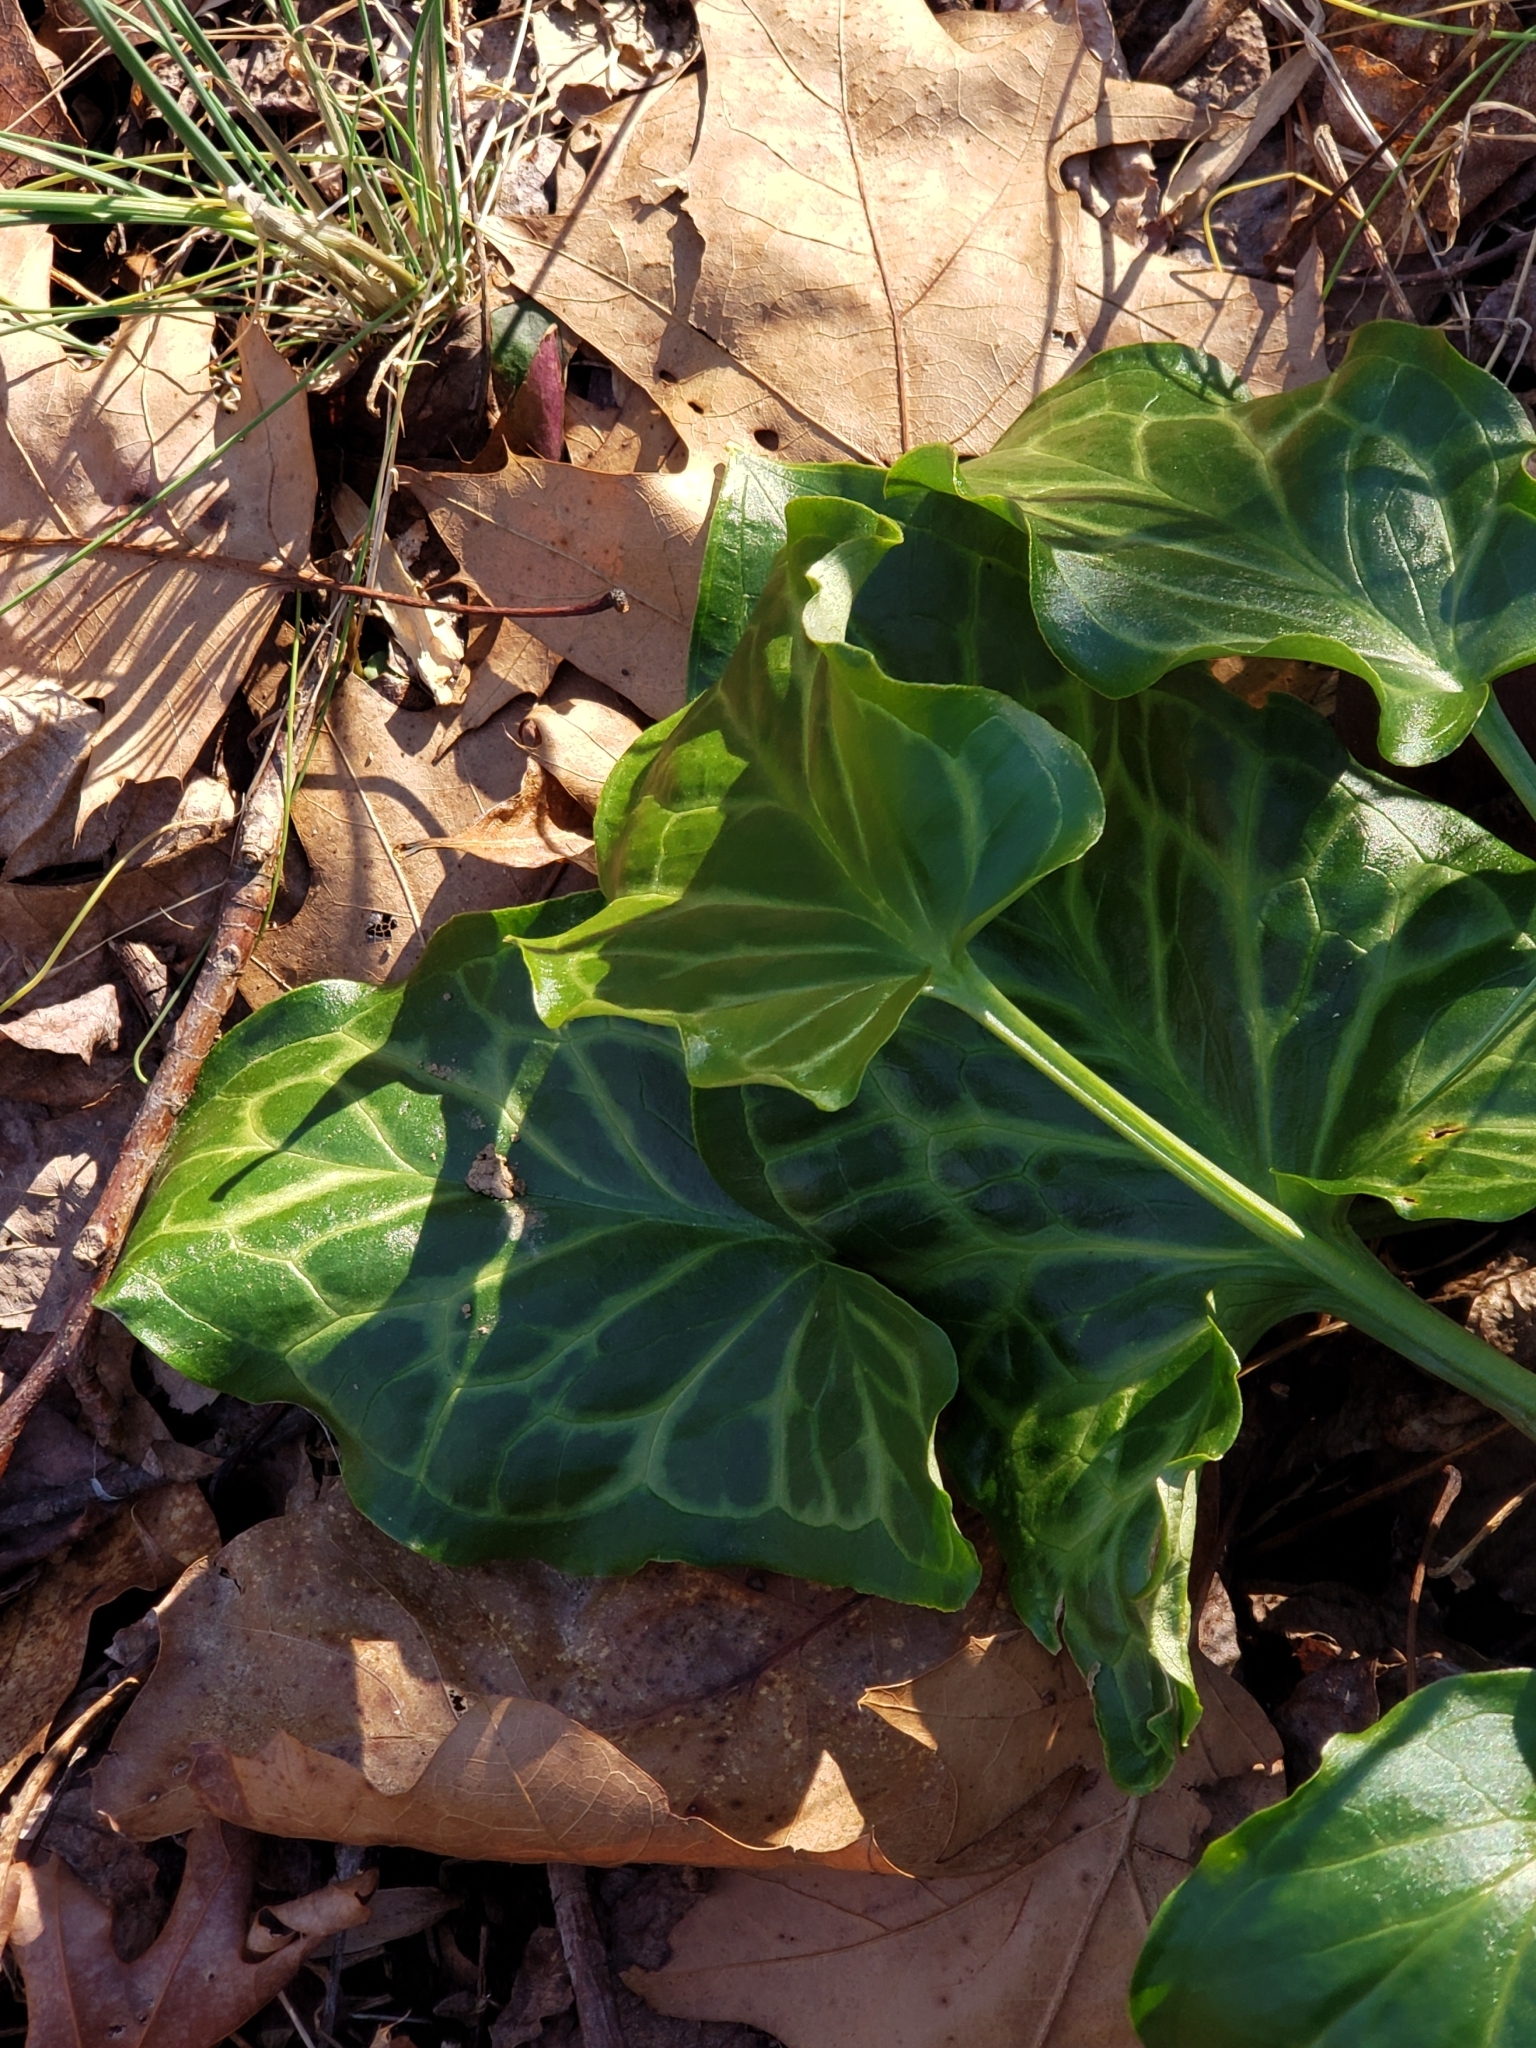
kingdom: Plantae
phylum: Tracheophyta
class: Liliopsida
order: Alismatales
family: Araceae
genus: Arum
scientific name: Arum italicum
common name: Italian lords-and-ladies
